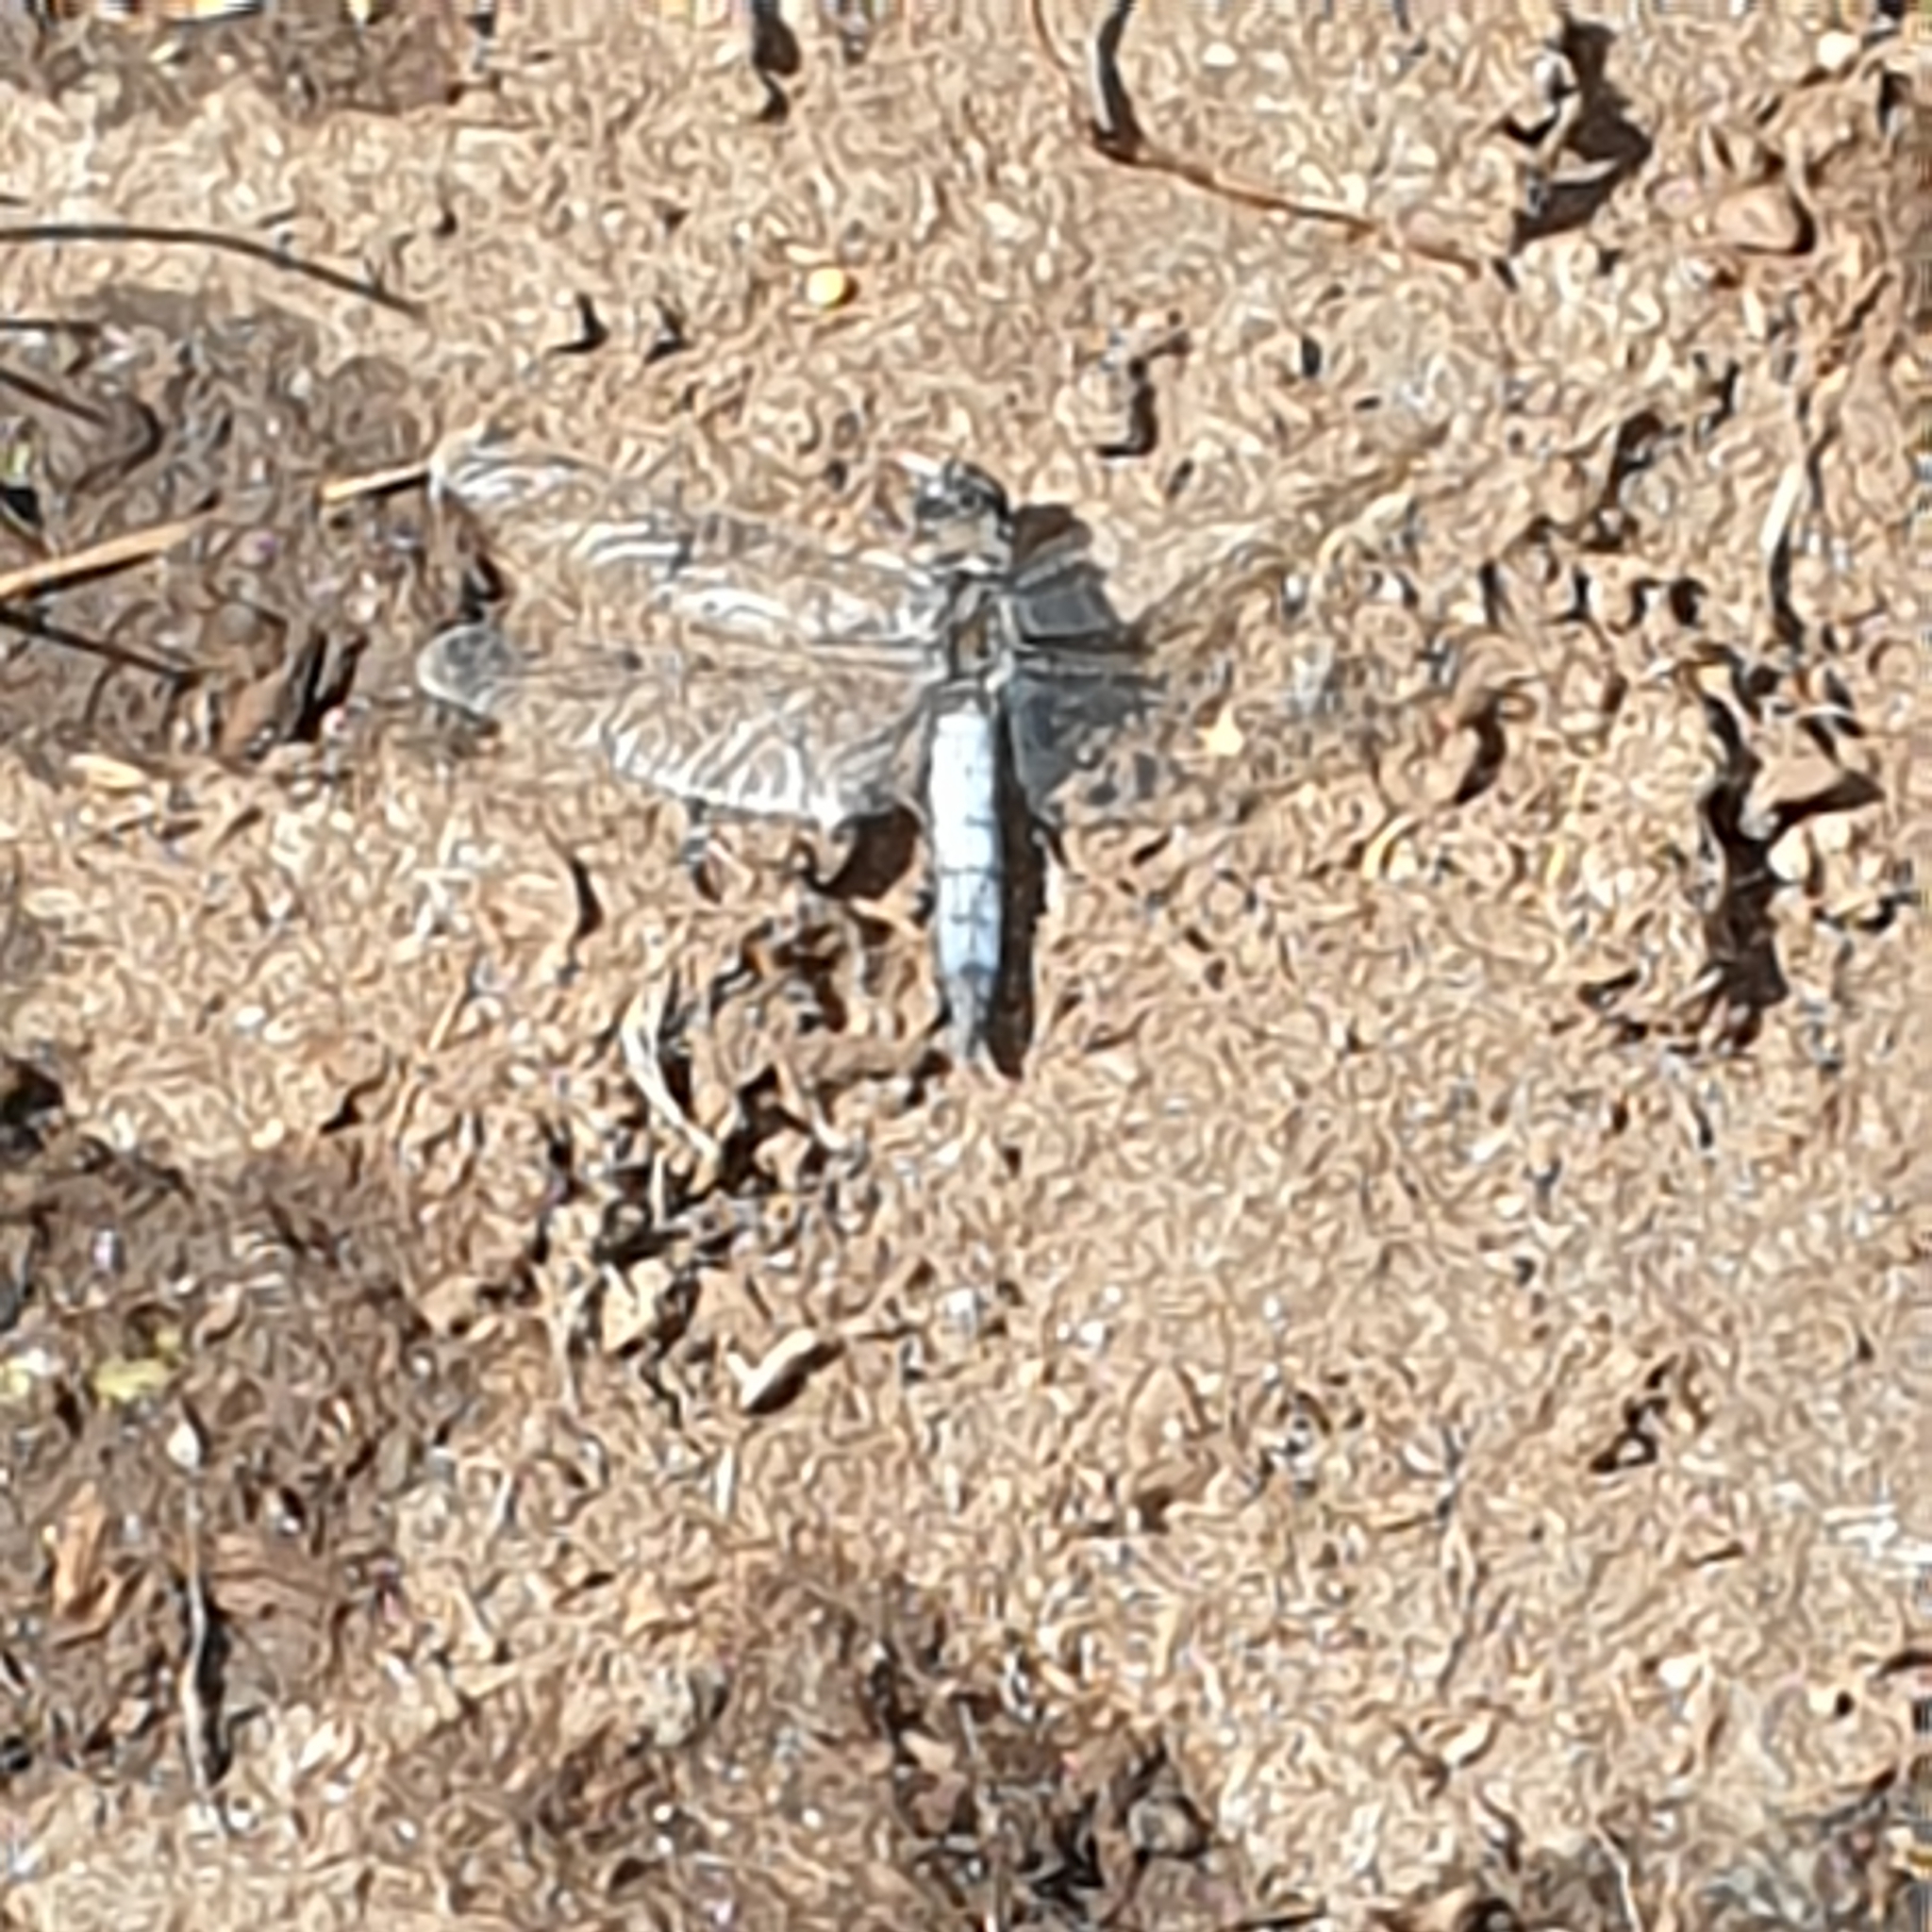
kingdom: Animalia
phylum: Arthropoda
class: Insecta
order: Odonata
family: Libellulidae
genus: Orthetrum
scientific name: Orthetrum cancellatum
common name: Black-tailed skimmer
